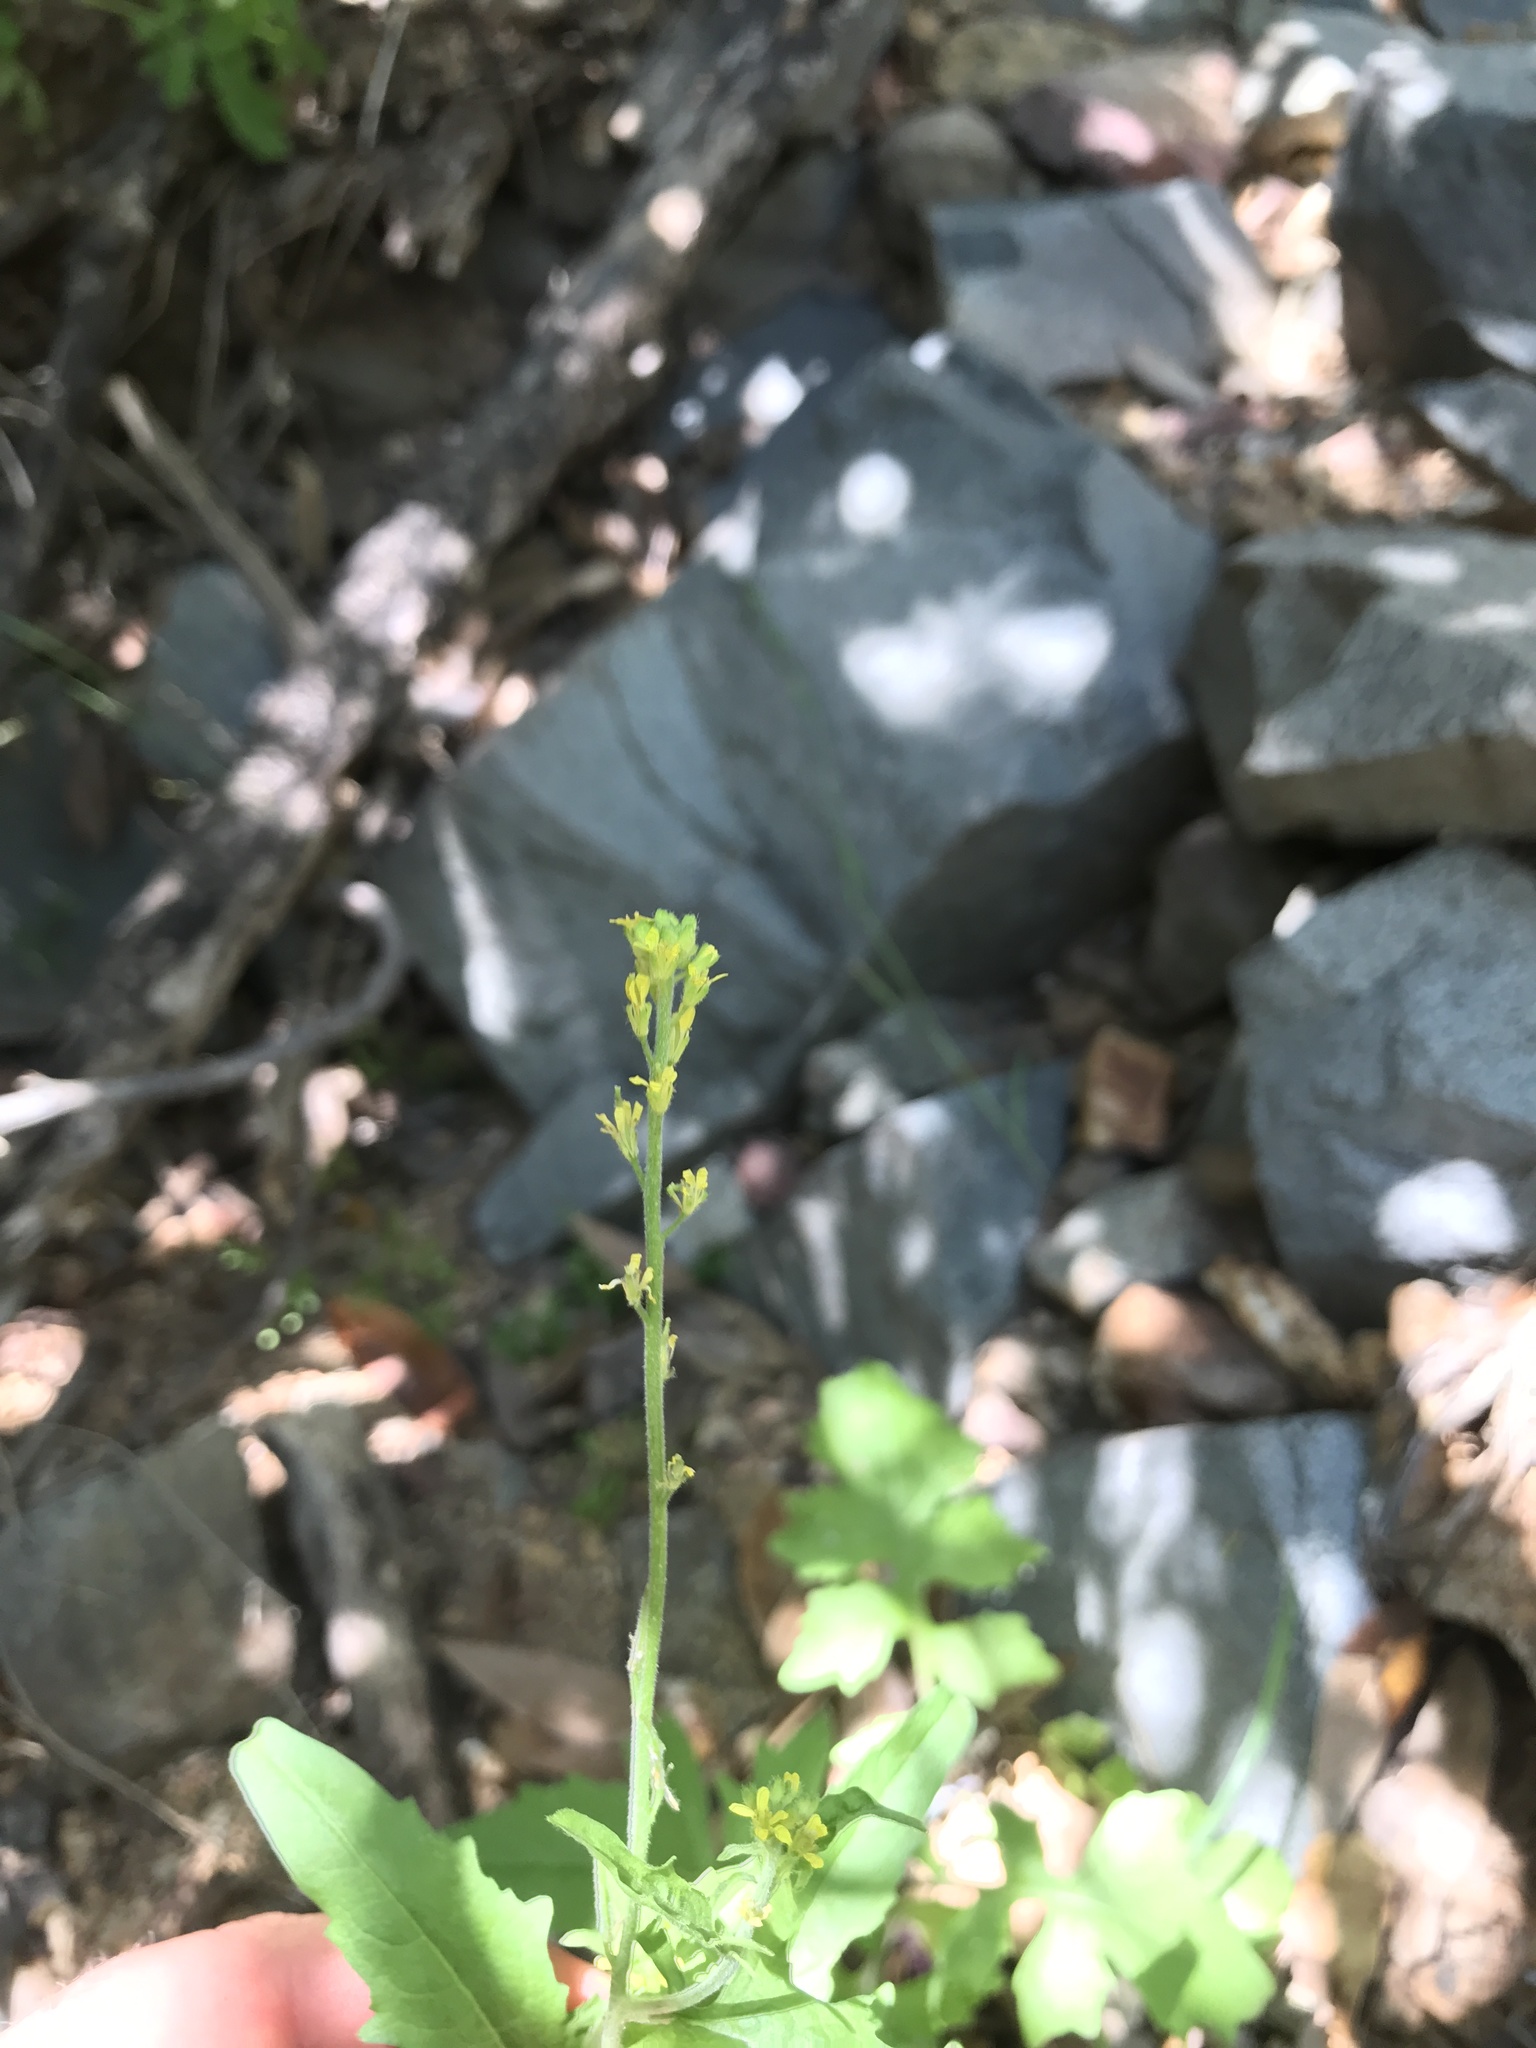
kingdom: Plantae
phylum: Tracheophyta
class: Magnoliopsida
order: Brassicales
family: Brassicaceae
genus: Hirschfeldia
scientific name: Hirschfeldia incana
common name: Hoary mustard
